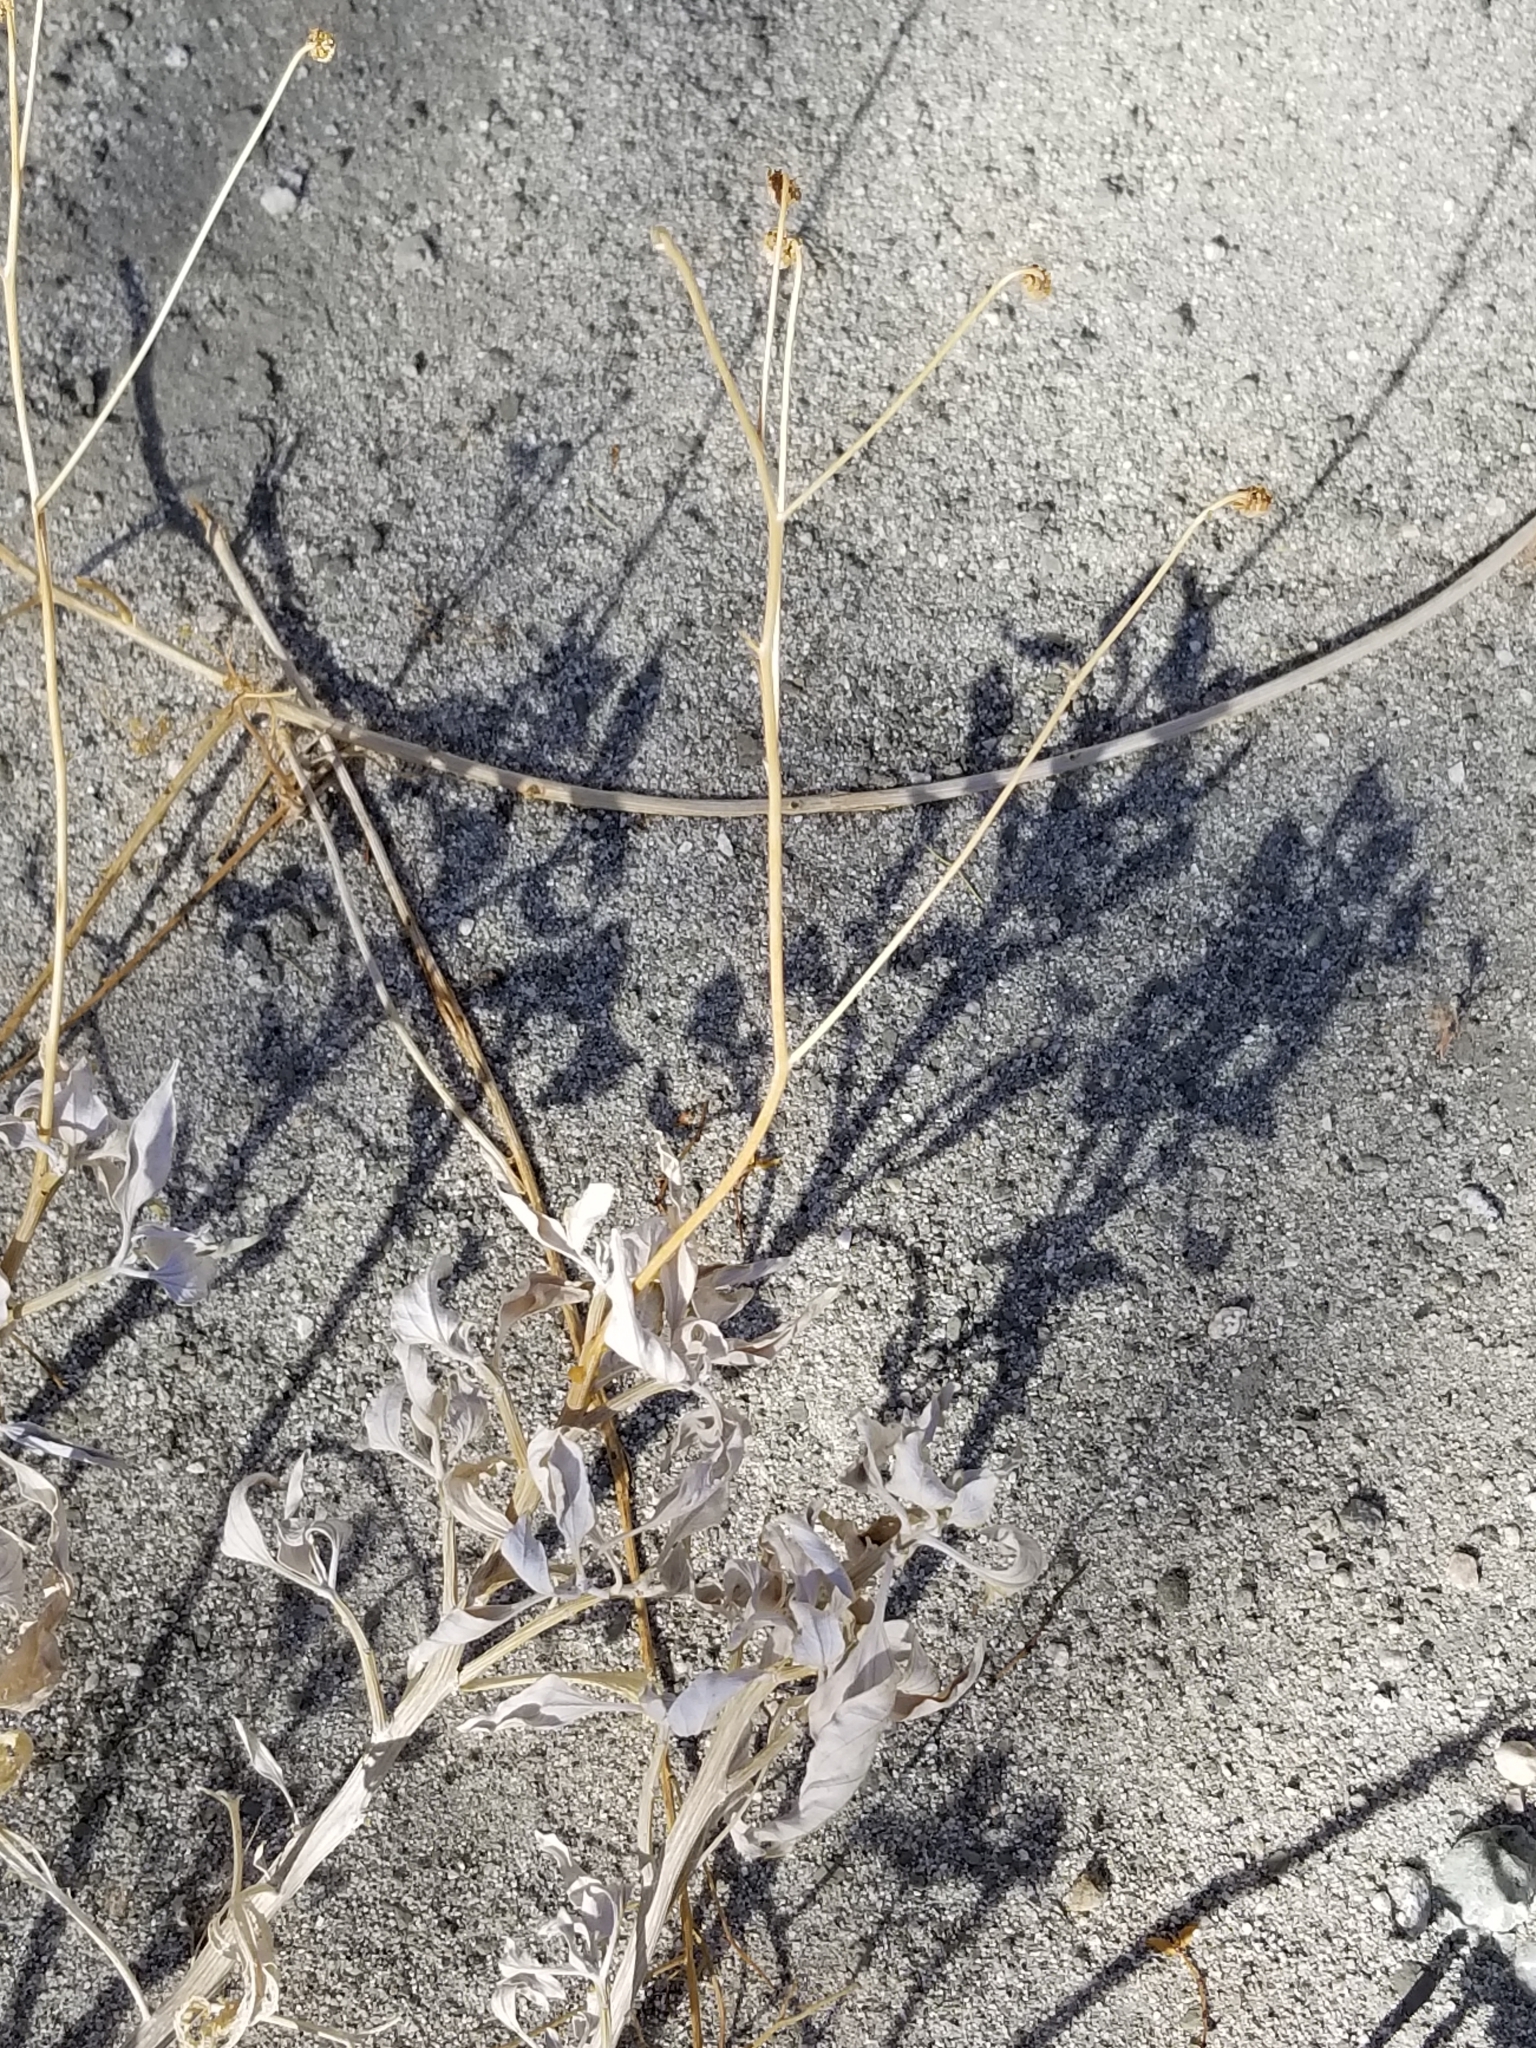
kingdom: Plantae
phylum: Tracheophyta
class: Magnoliopsida
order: Asterales
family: Asteraceae
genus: Encelia
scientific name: Encelia farinosa
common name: Brittlebush
